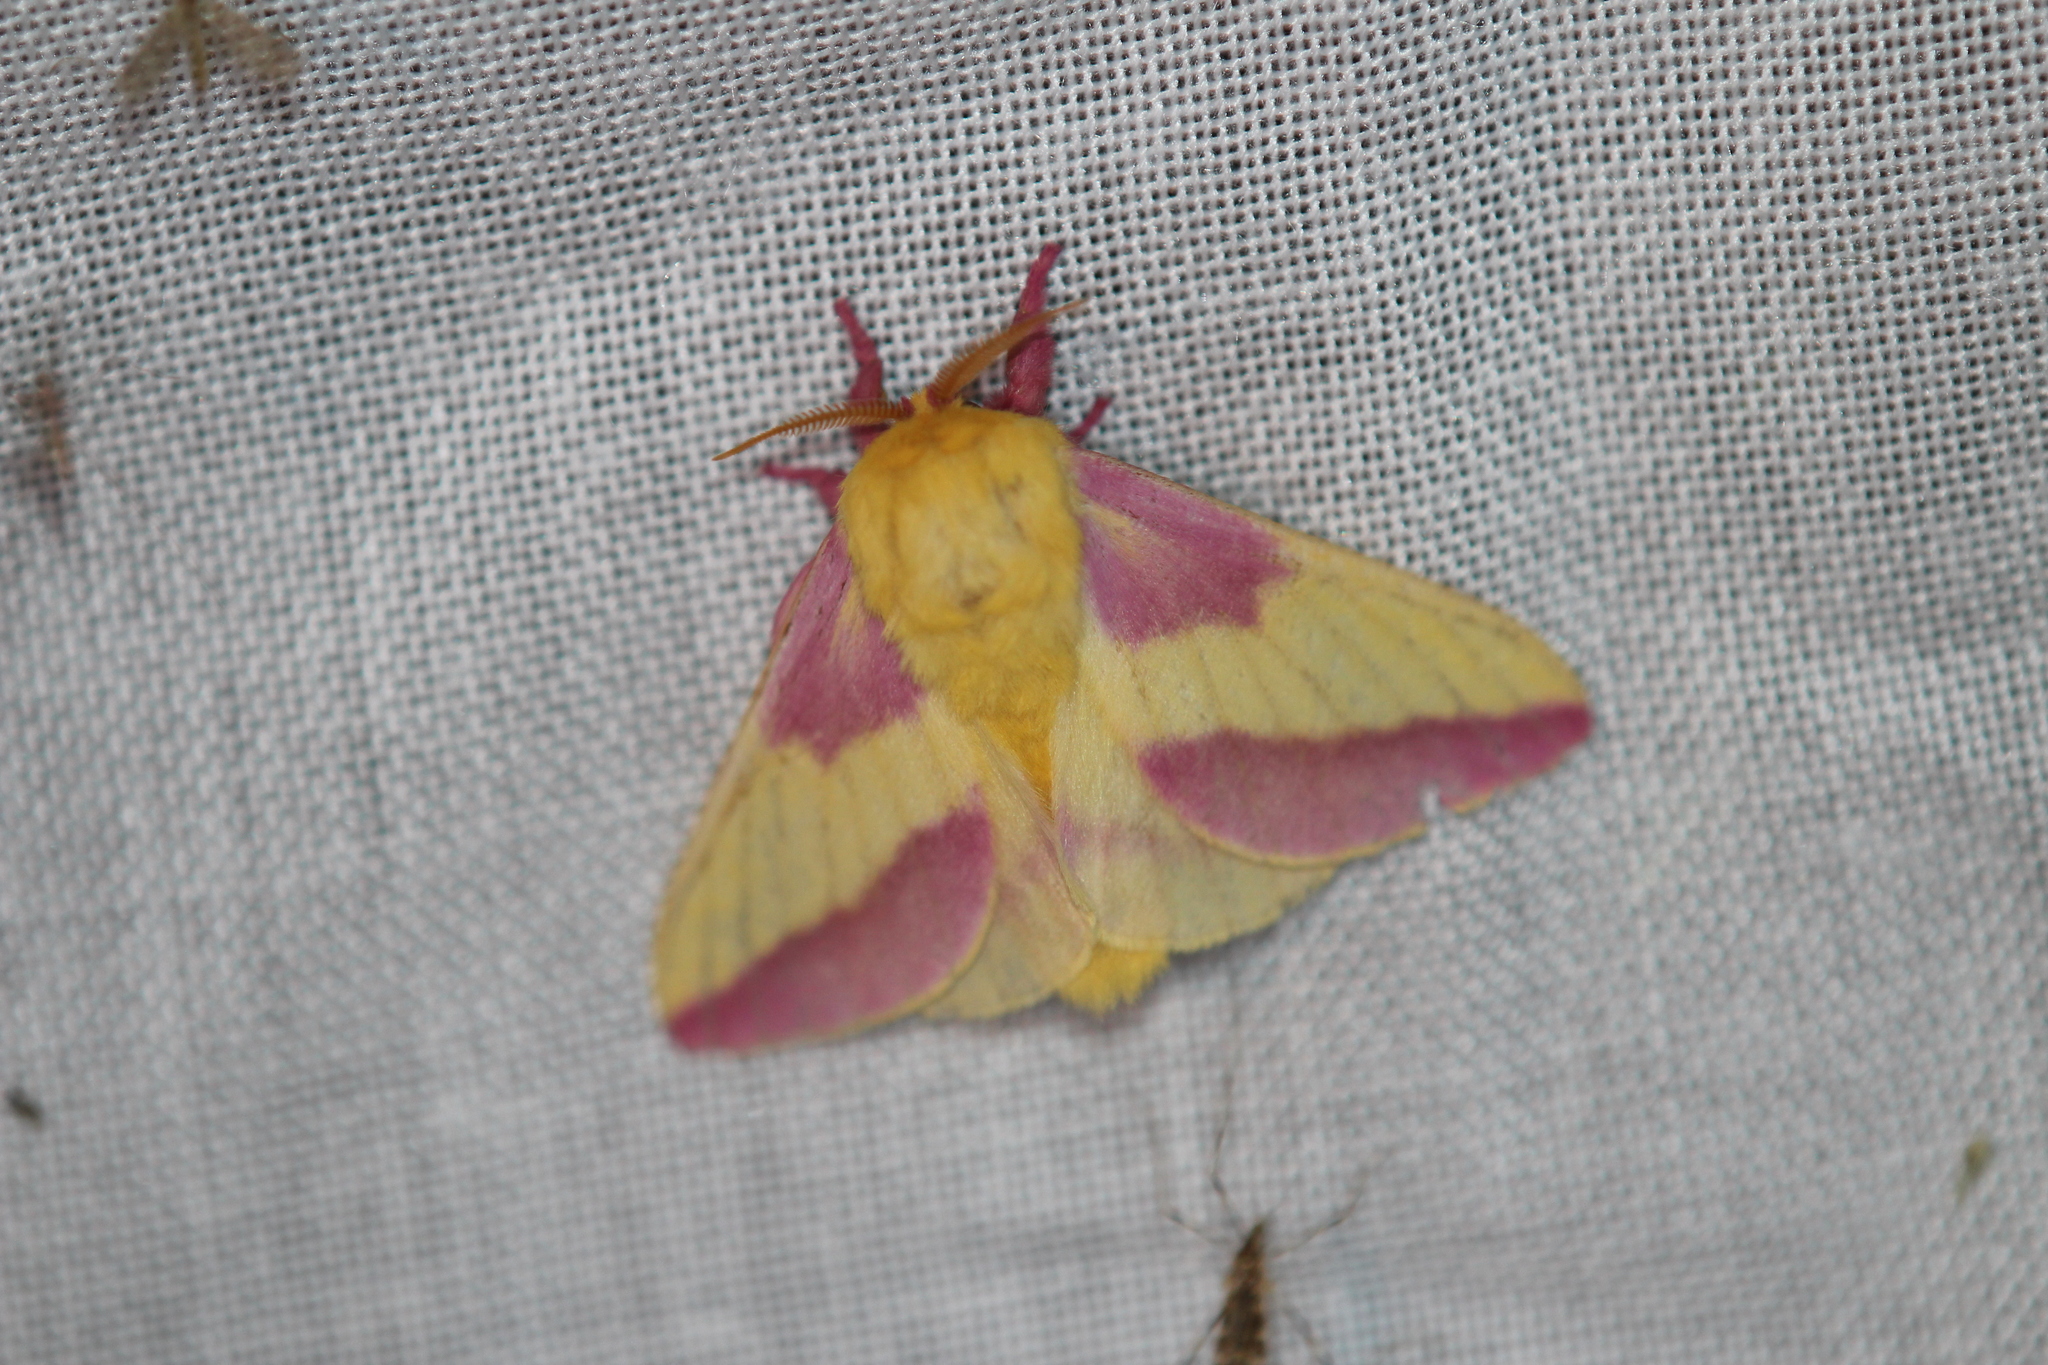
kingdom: Animalia
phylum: Arthropoda
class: Insecta
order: Lepidoptera
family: Saturniidae
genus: Dryocampa
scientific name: Dryocampa rubicunda
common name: Rosy maple moth
